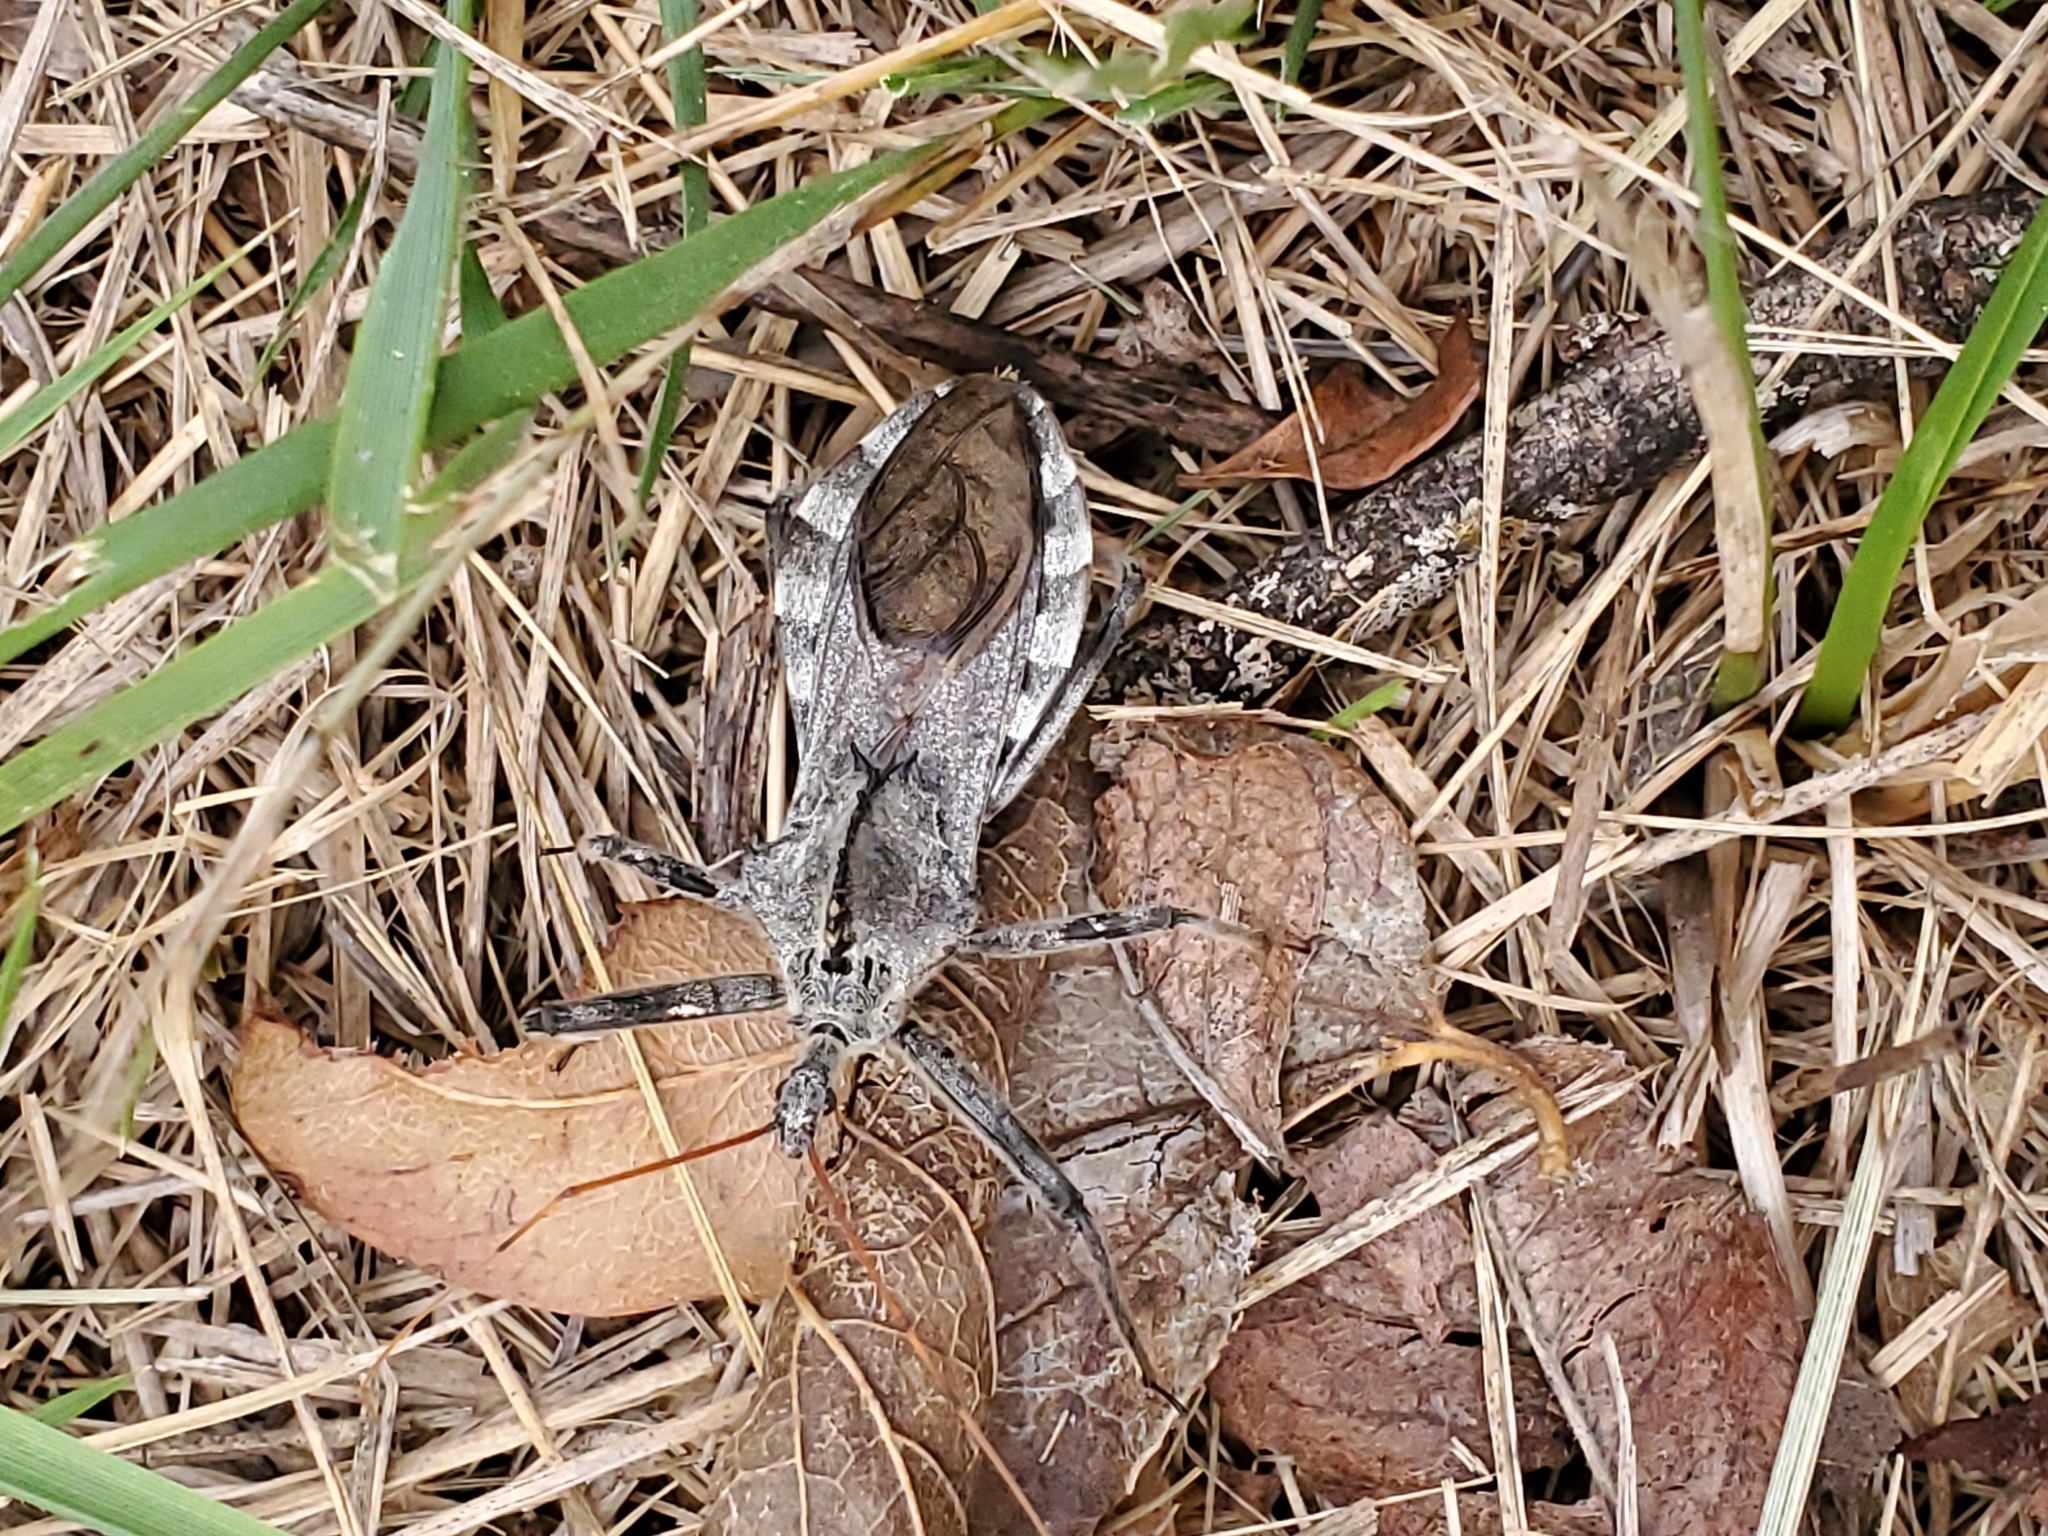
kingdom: Animalia
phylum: Arthropoda
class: Insecta
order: Hemiptera
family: Reduviidae
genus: Arilus
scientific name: Arilus cristatus
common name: North american wheel bug
